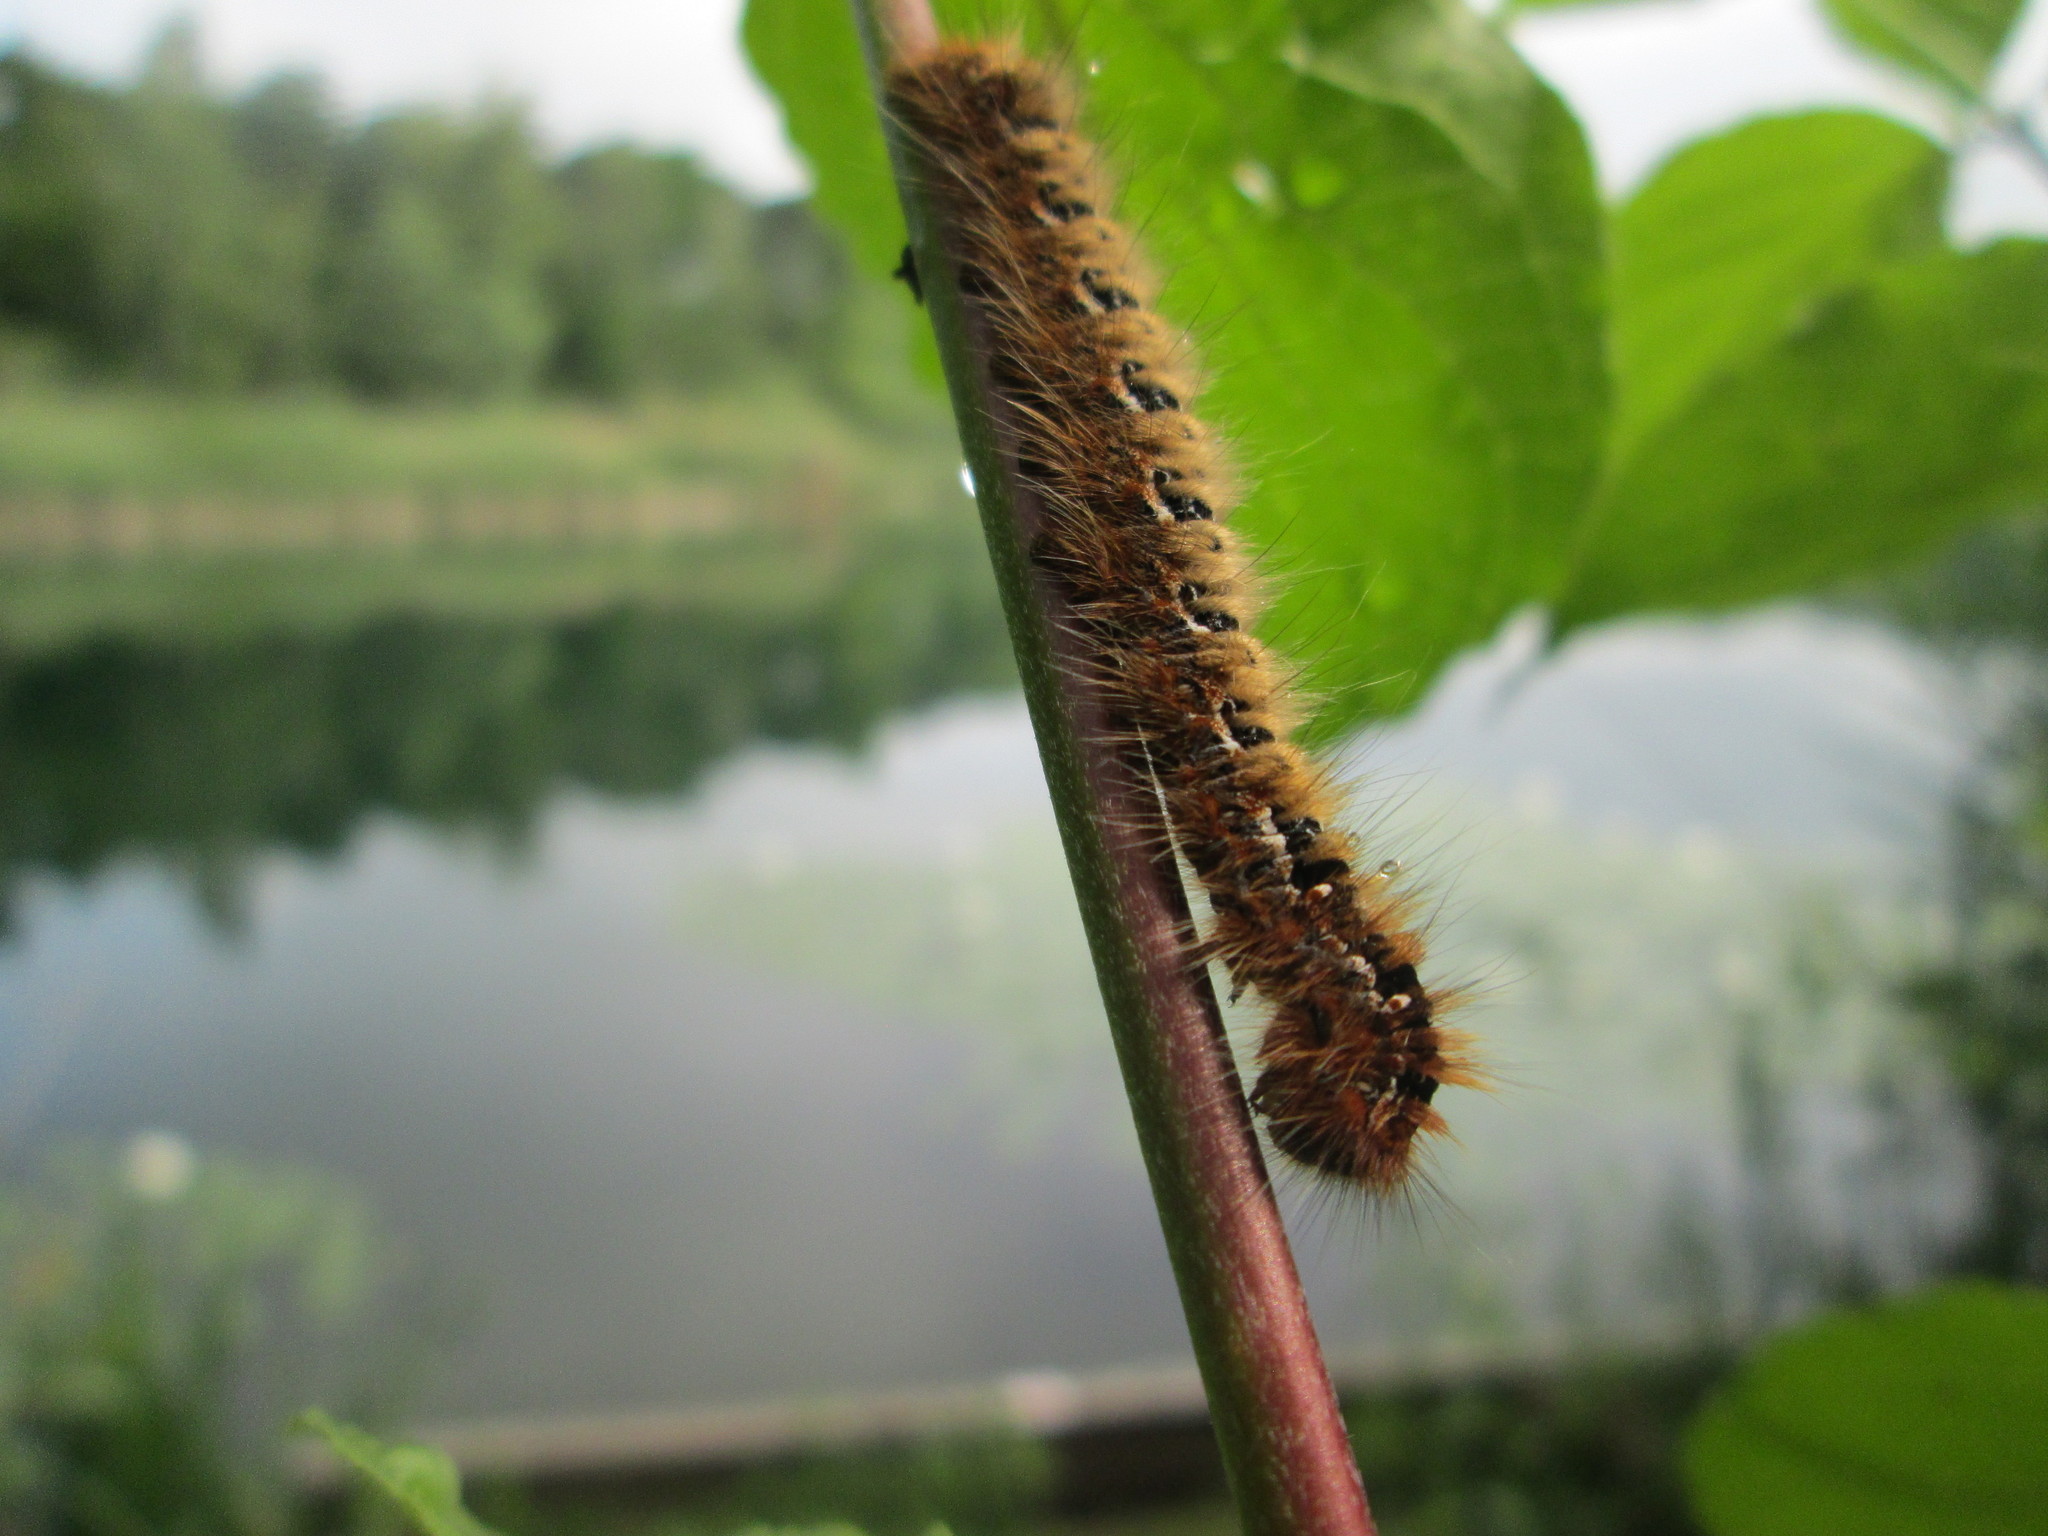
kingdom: Animalia
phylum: Arthropoda
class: Insecta
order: Lepidoptera
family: Lasiocampidae
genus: Lasiocampa
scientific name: Lasiocampa quercus
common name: Oak eggar
